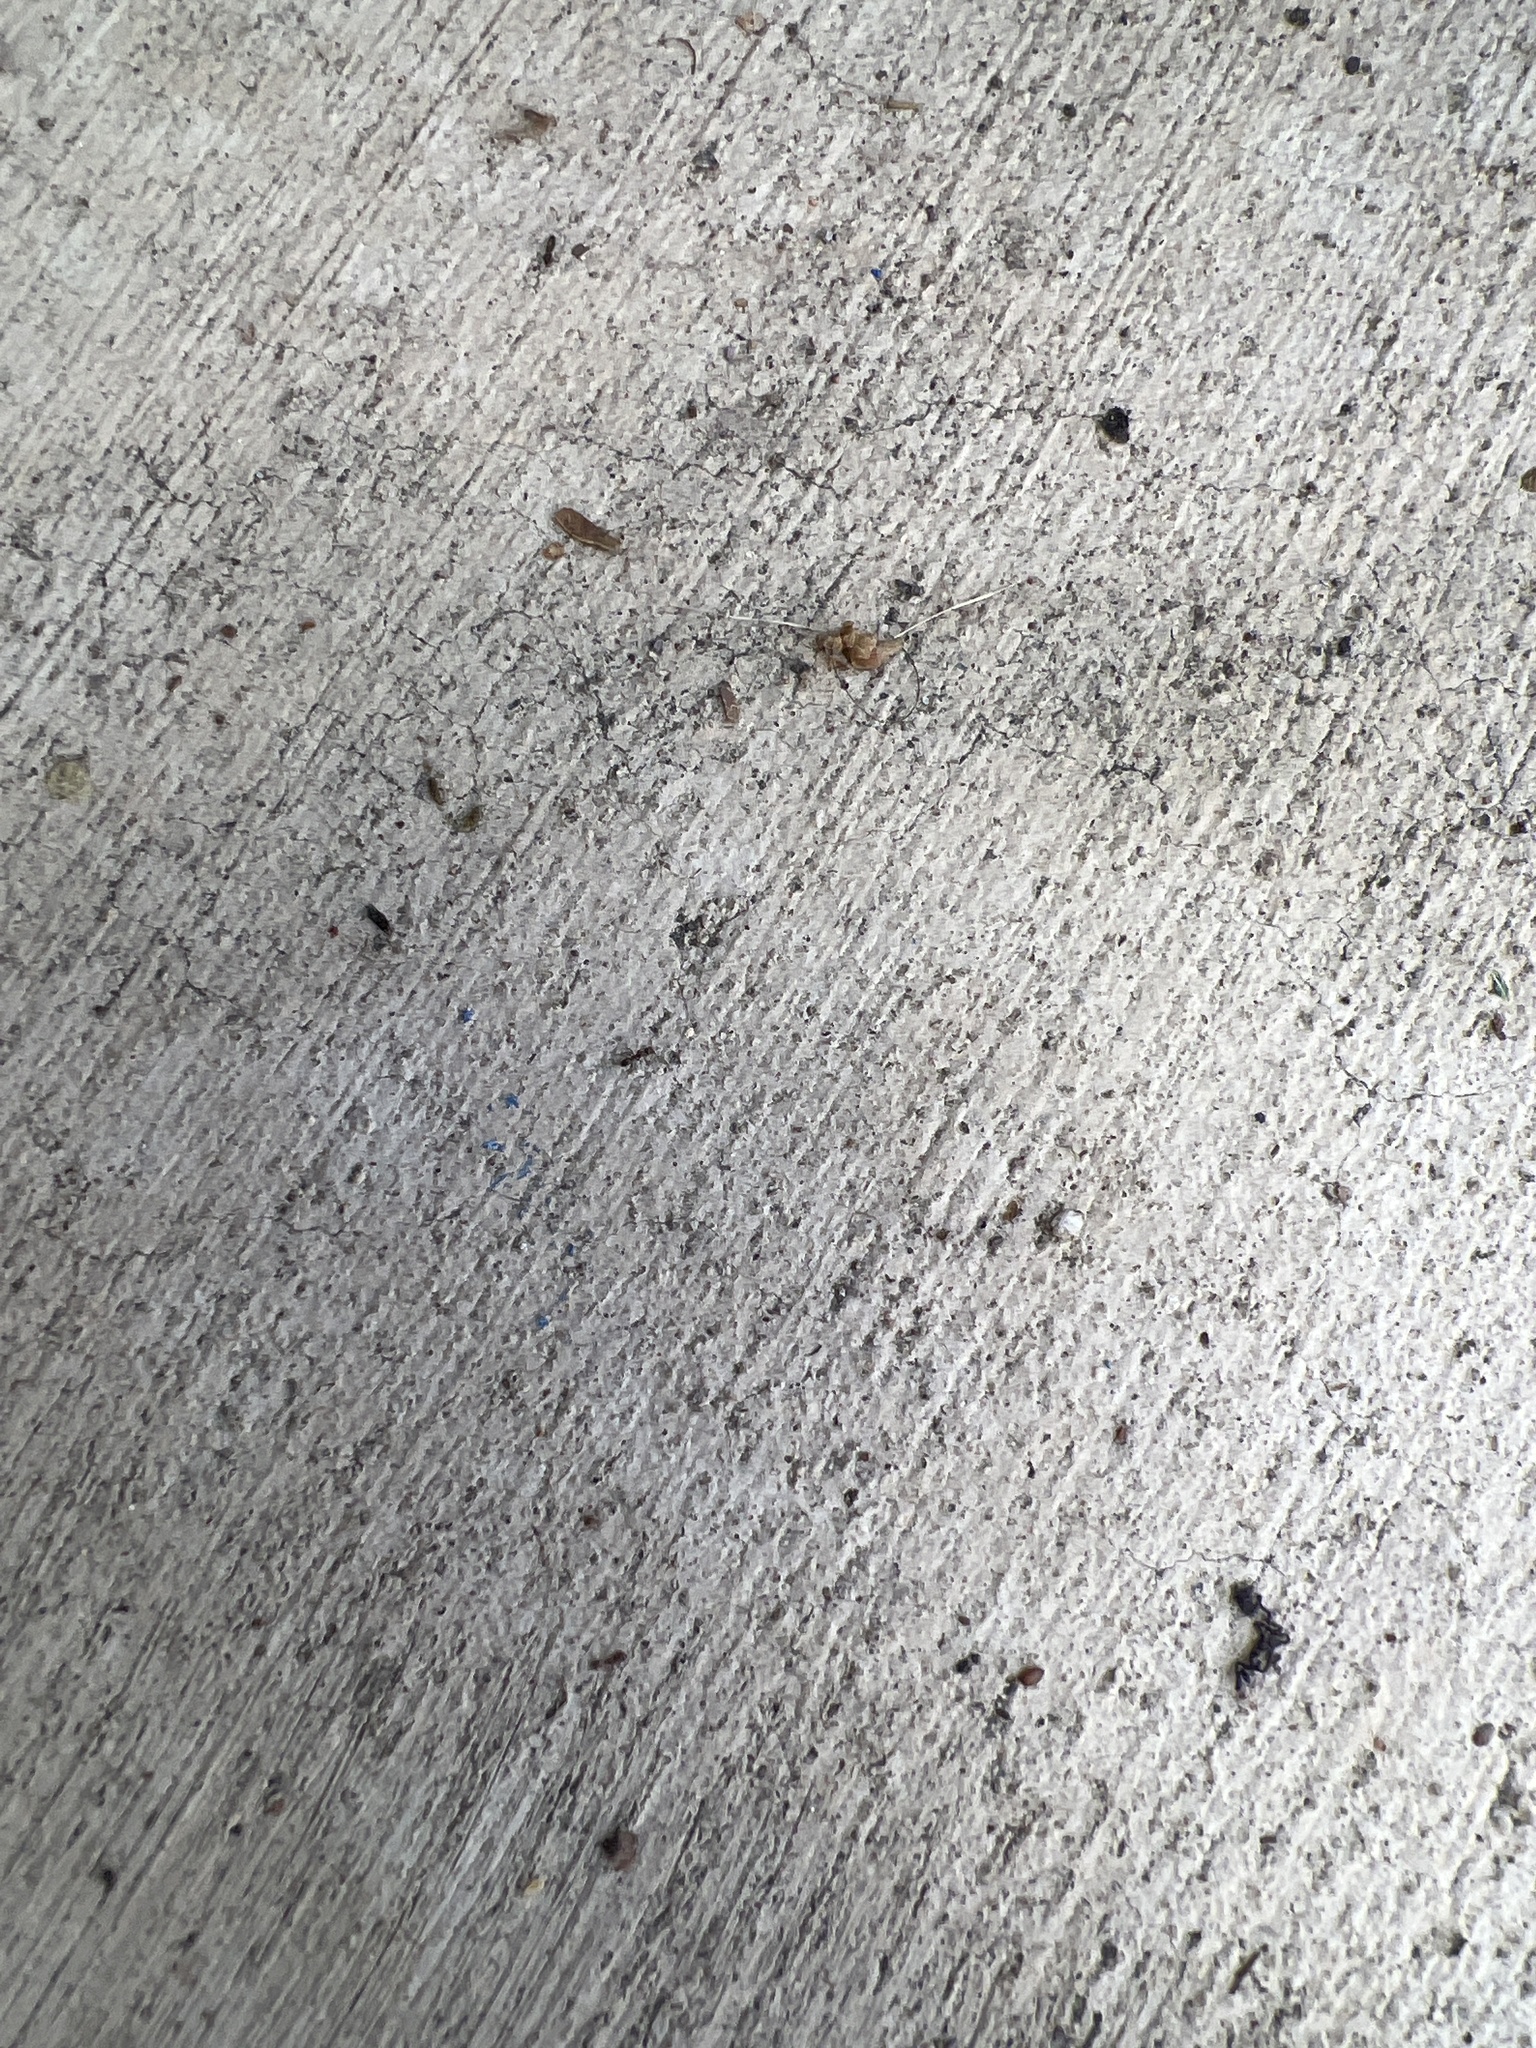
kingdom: Animalia
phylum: Arthropoda
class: Insecta
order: Hymenoptera
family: Formicidae
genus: Linepithema
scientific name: Linepithema humile
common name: Argentine ant
